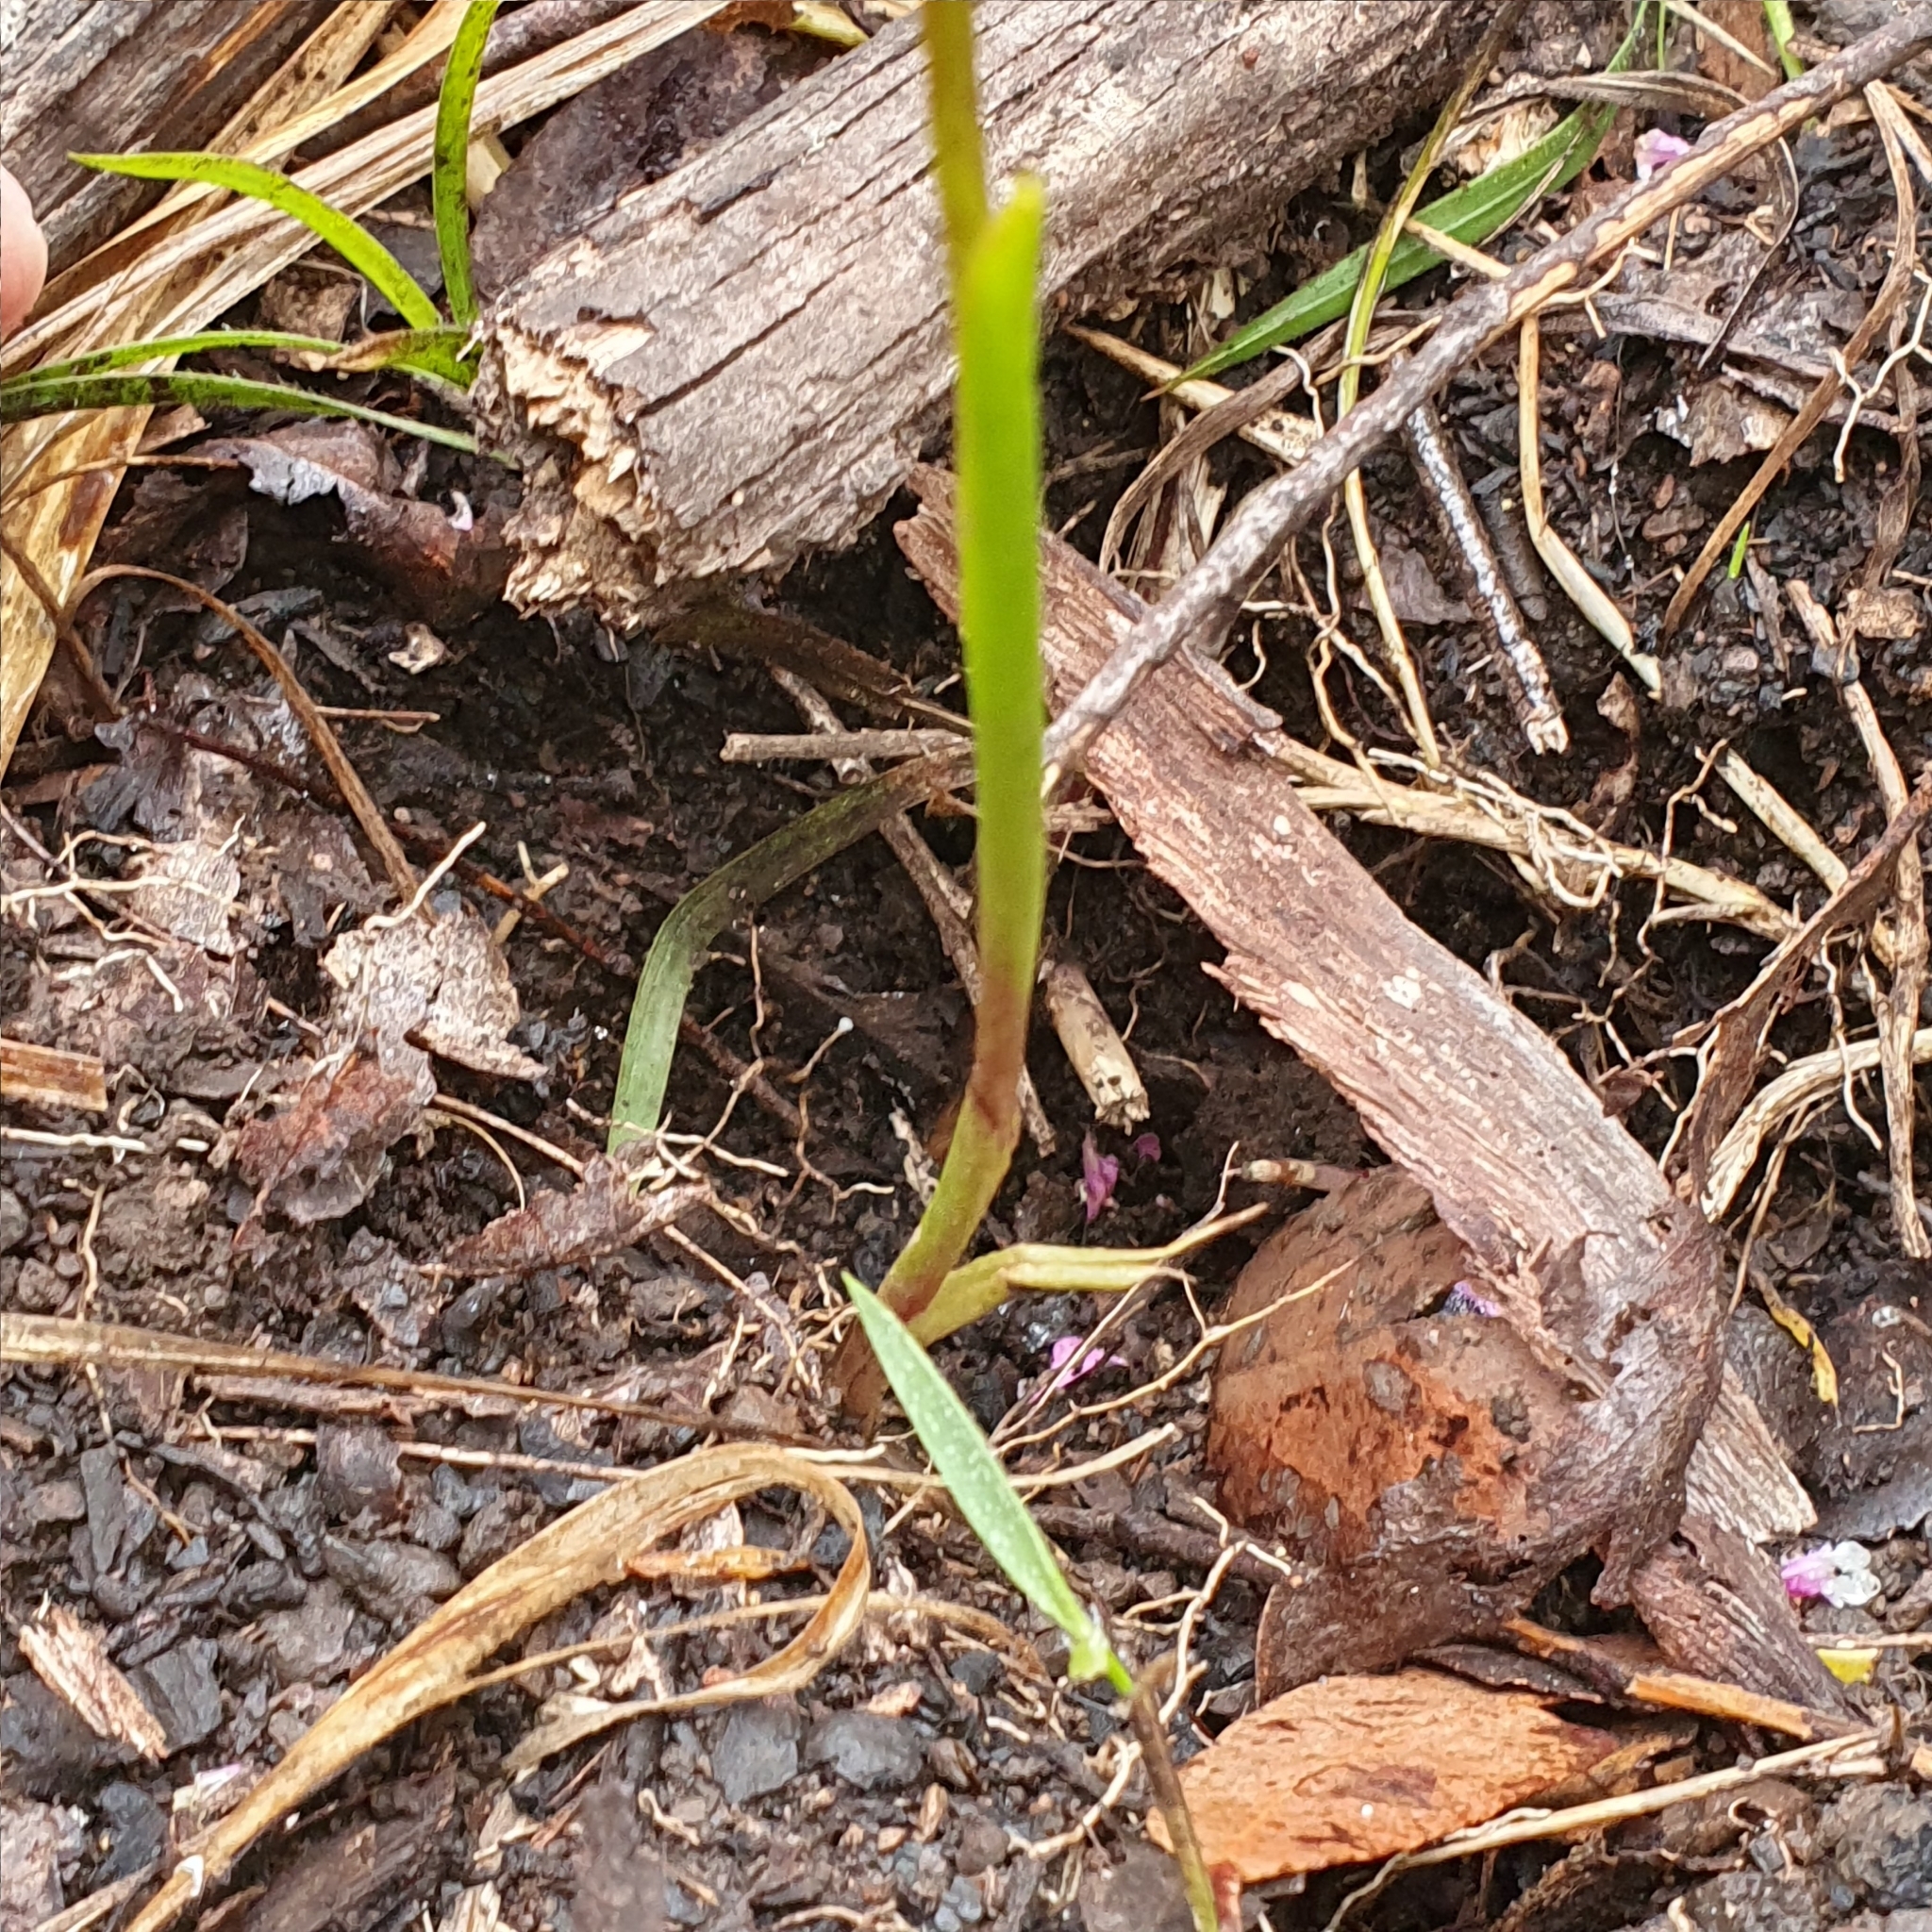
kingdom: Plantae
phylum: Tracheophyta
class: Liliopsida
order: Asparagales
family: Orchidaceae
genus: Diuris
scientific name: Diuris sulphurea
